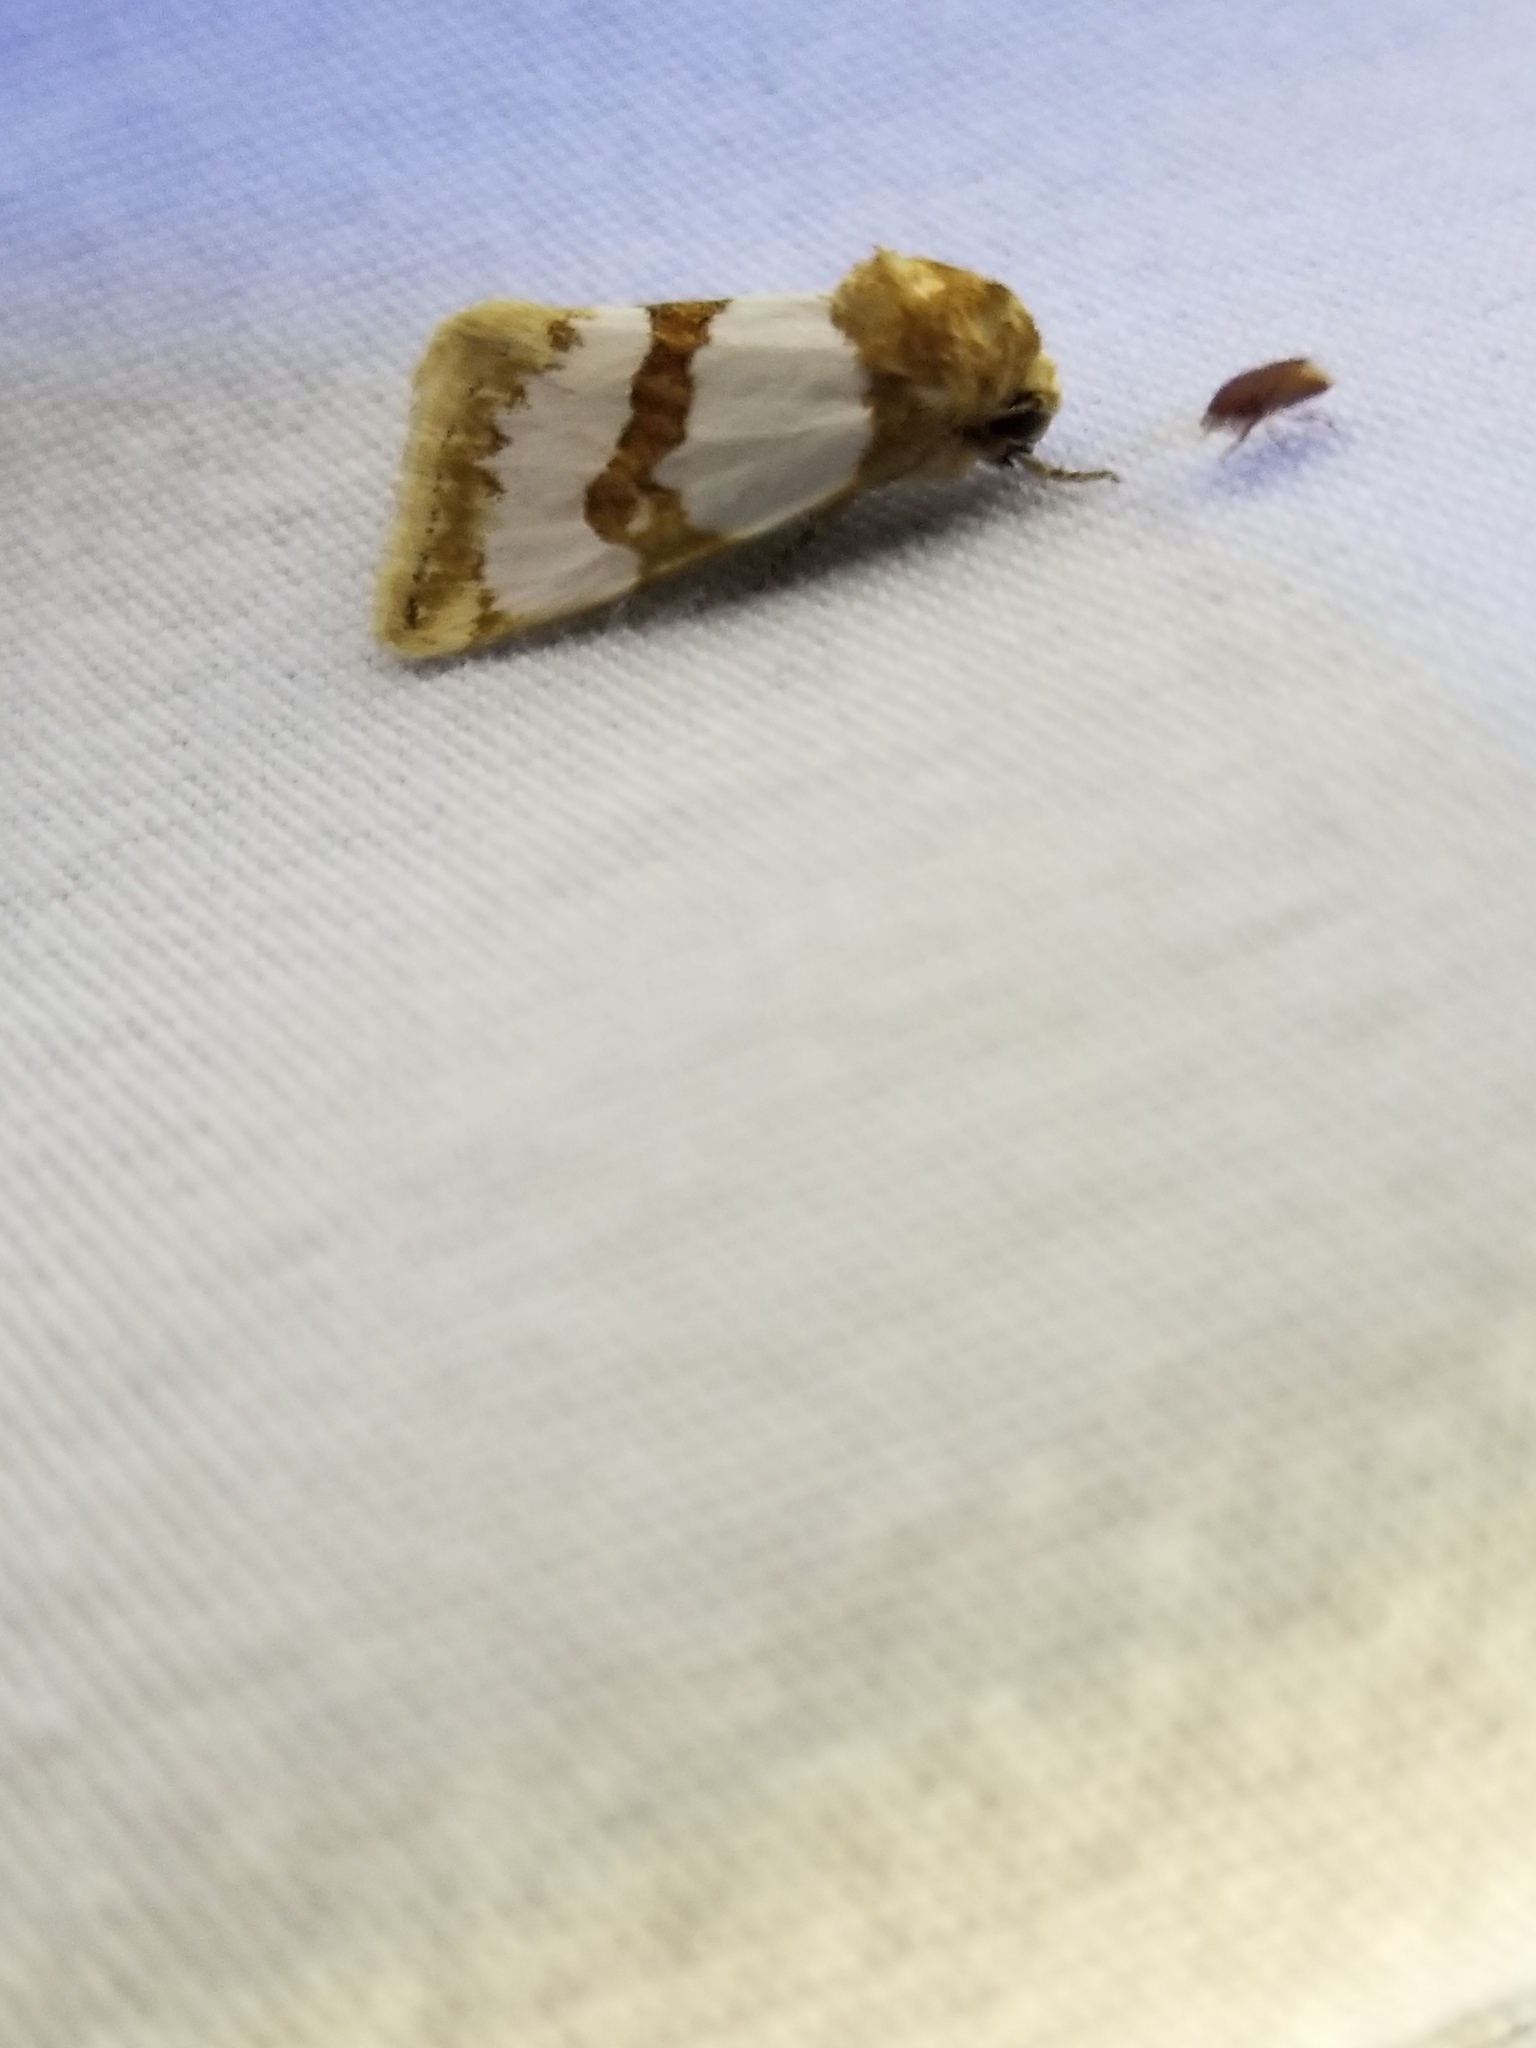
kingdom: Animalia
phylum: Arthropoda
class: Insecta
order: Lepidoptera
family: Noctuidae
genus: Schinia
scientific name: Schinia chrysellus
